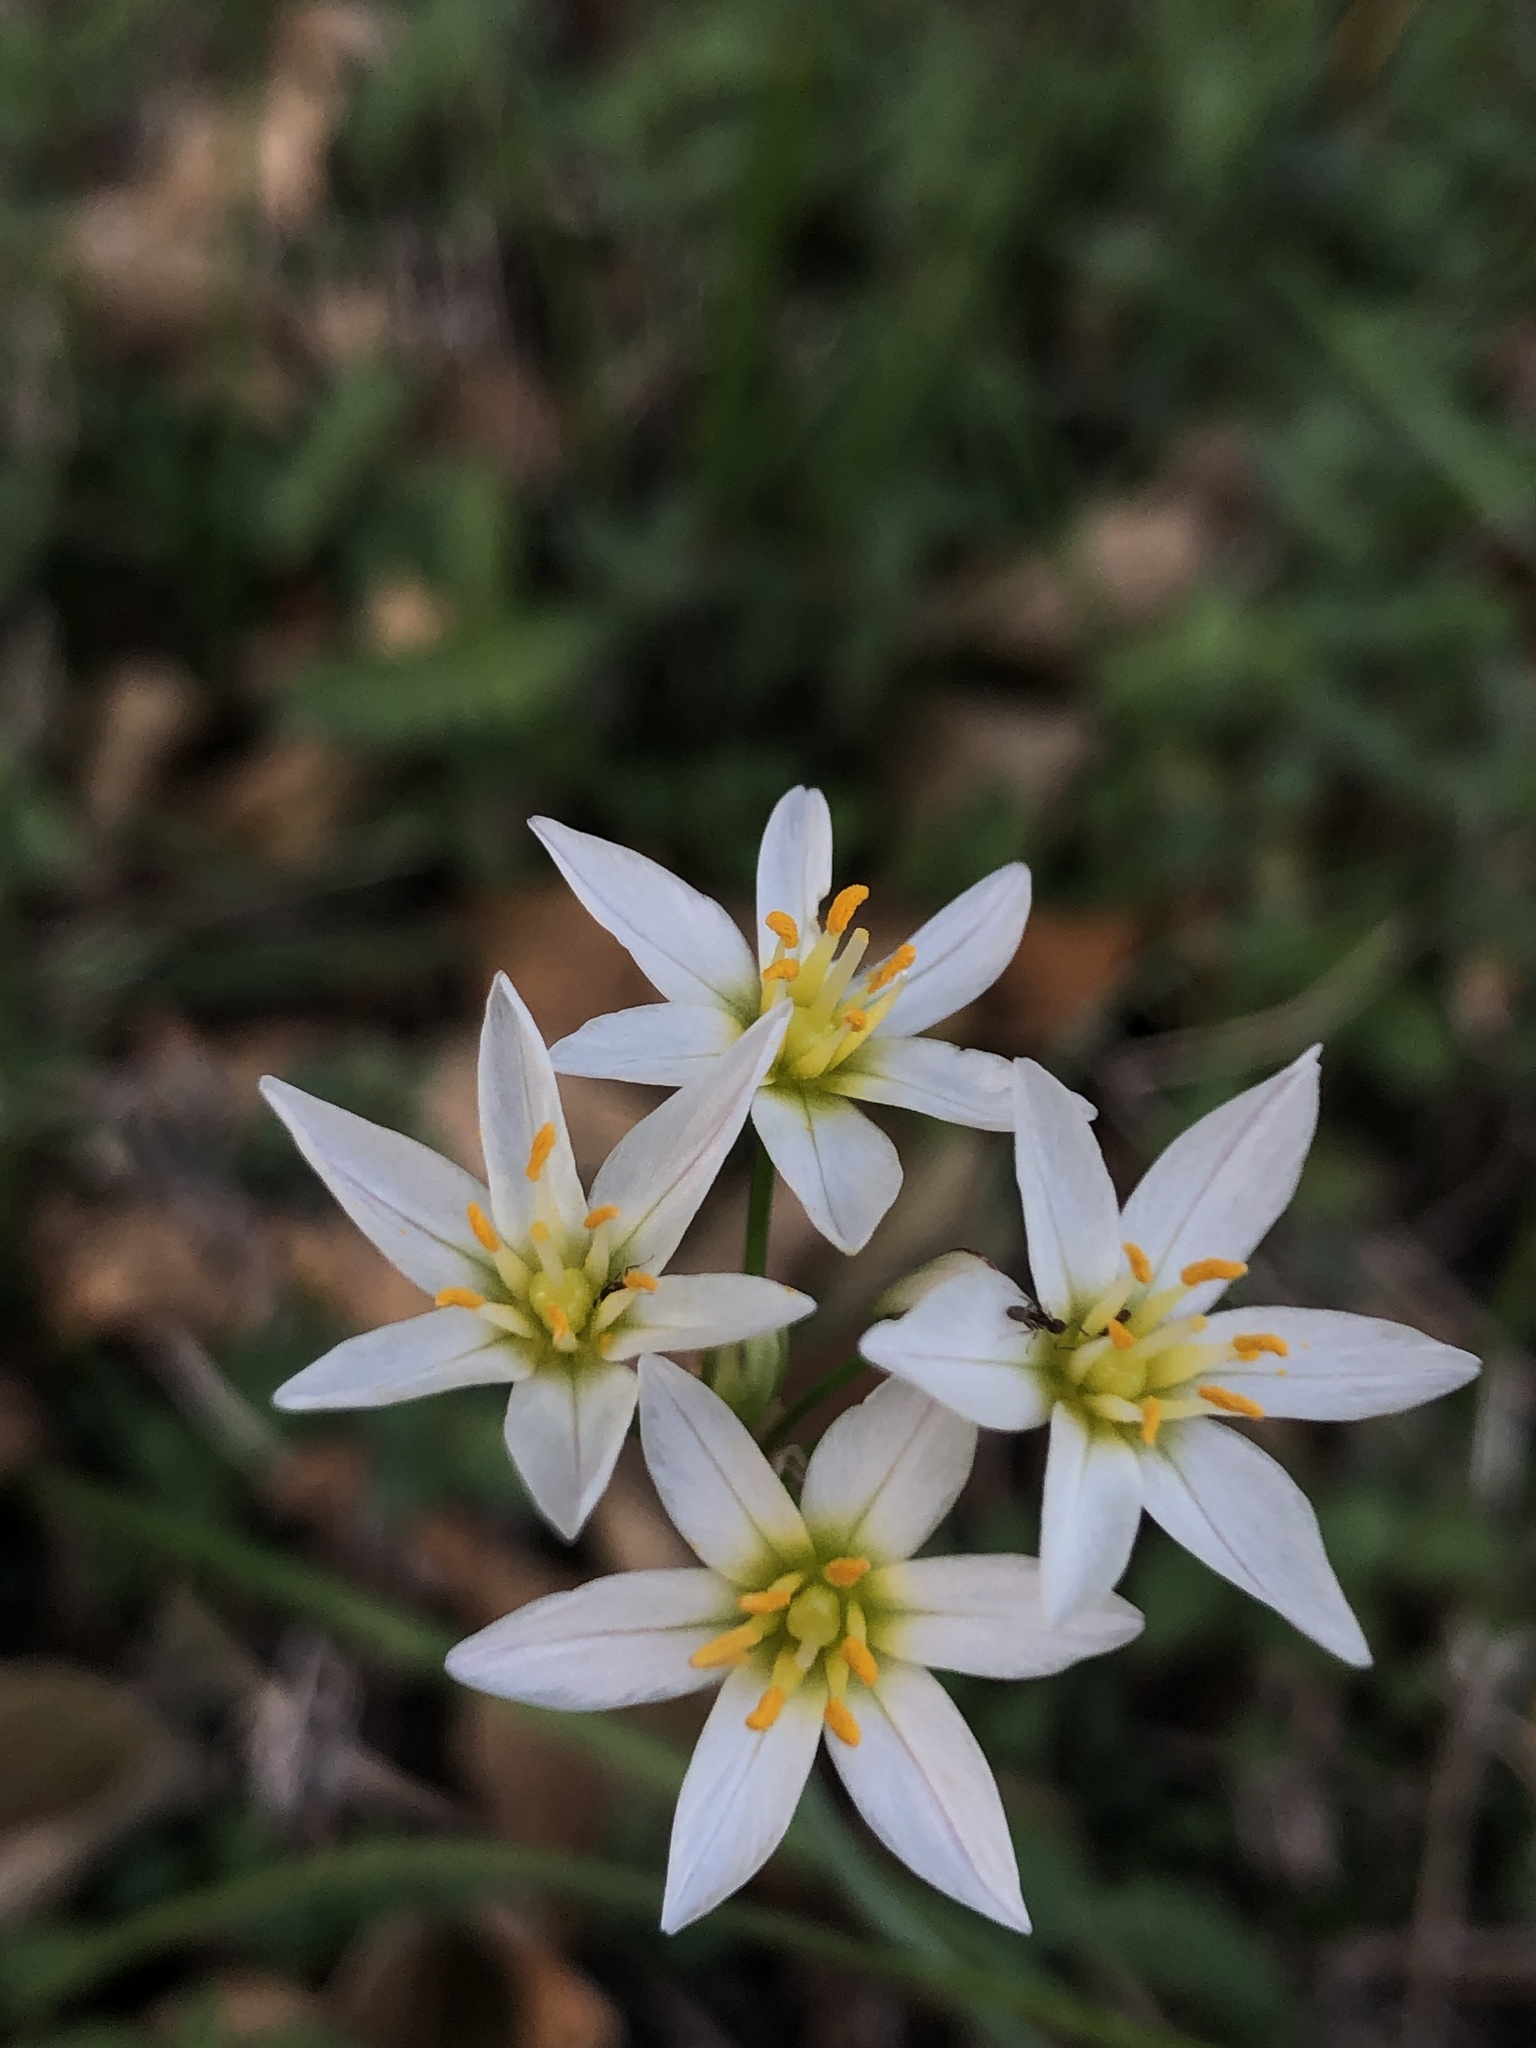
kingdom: Plantae
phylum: Tracheophyta
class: Liliopsida
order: Asparagales
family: Amaryllidaceae
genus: Nothoscordum
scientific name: Nothoscordum bivalve
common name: Crow-poison
